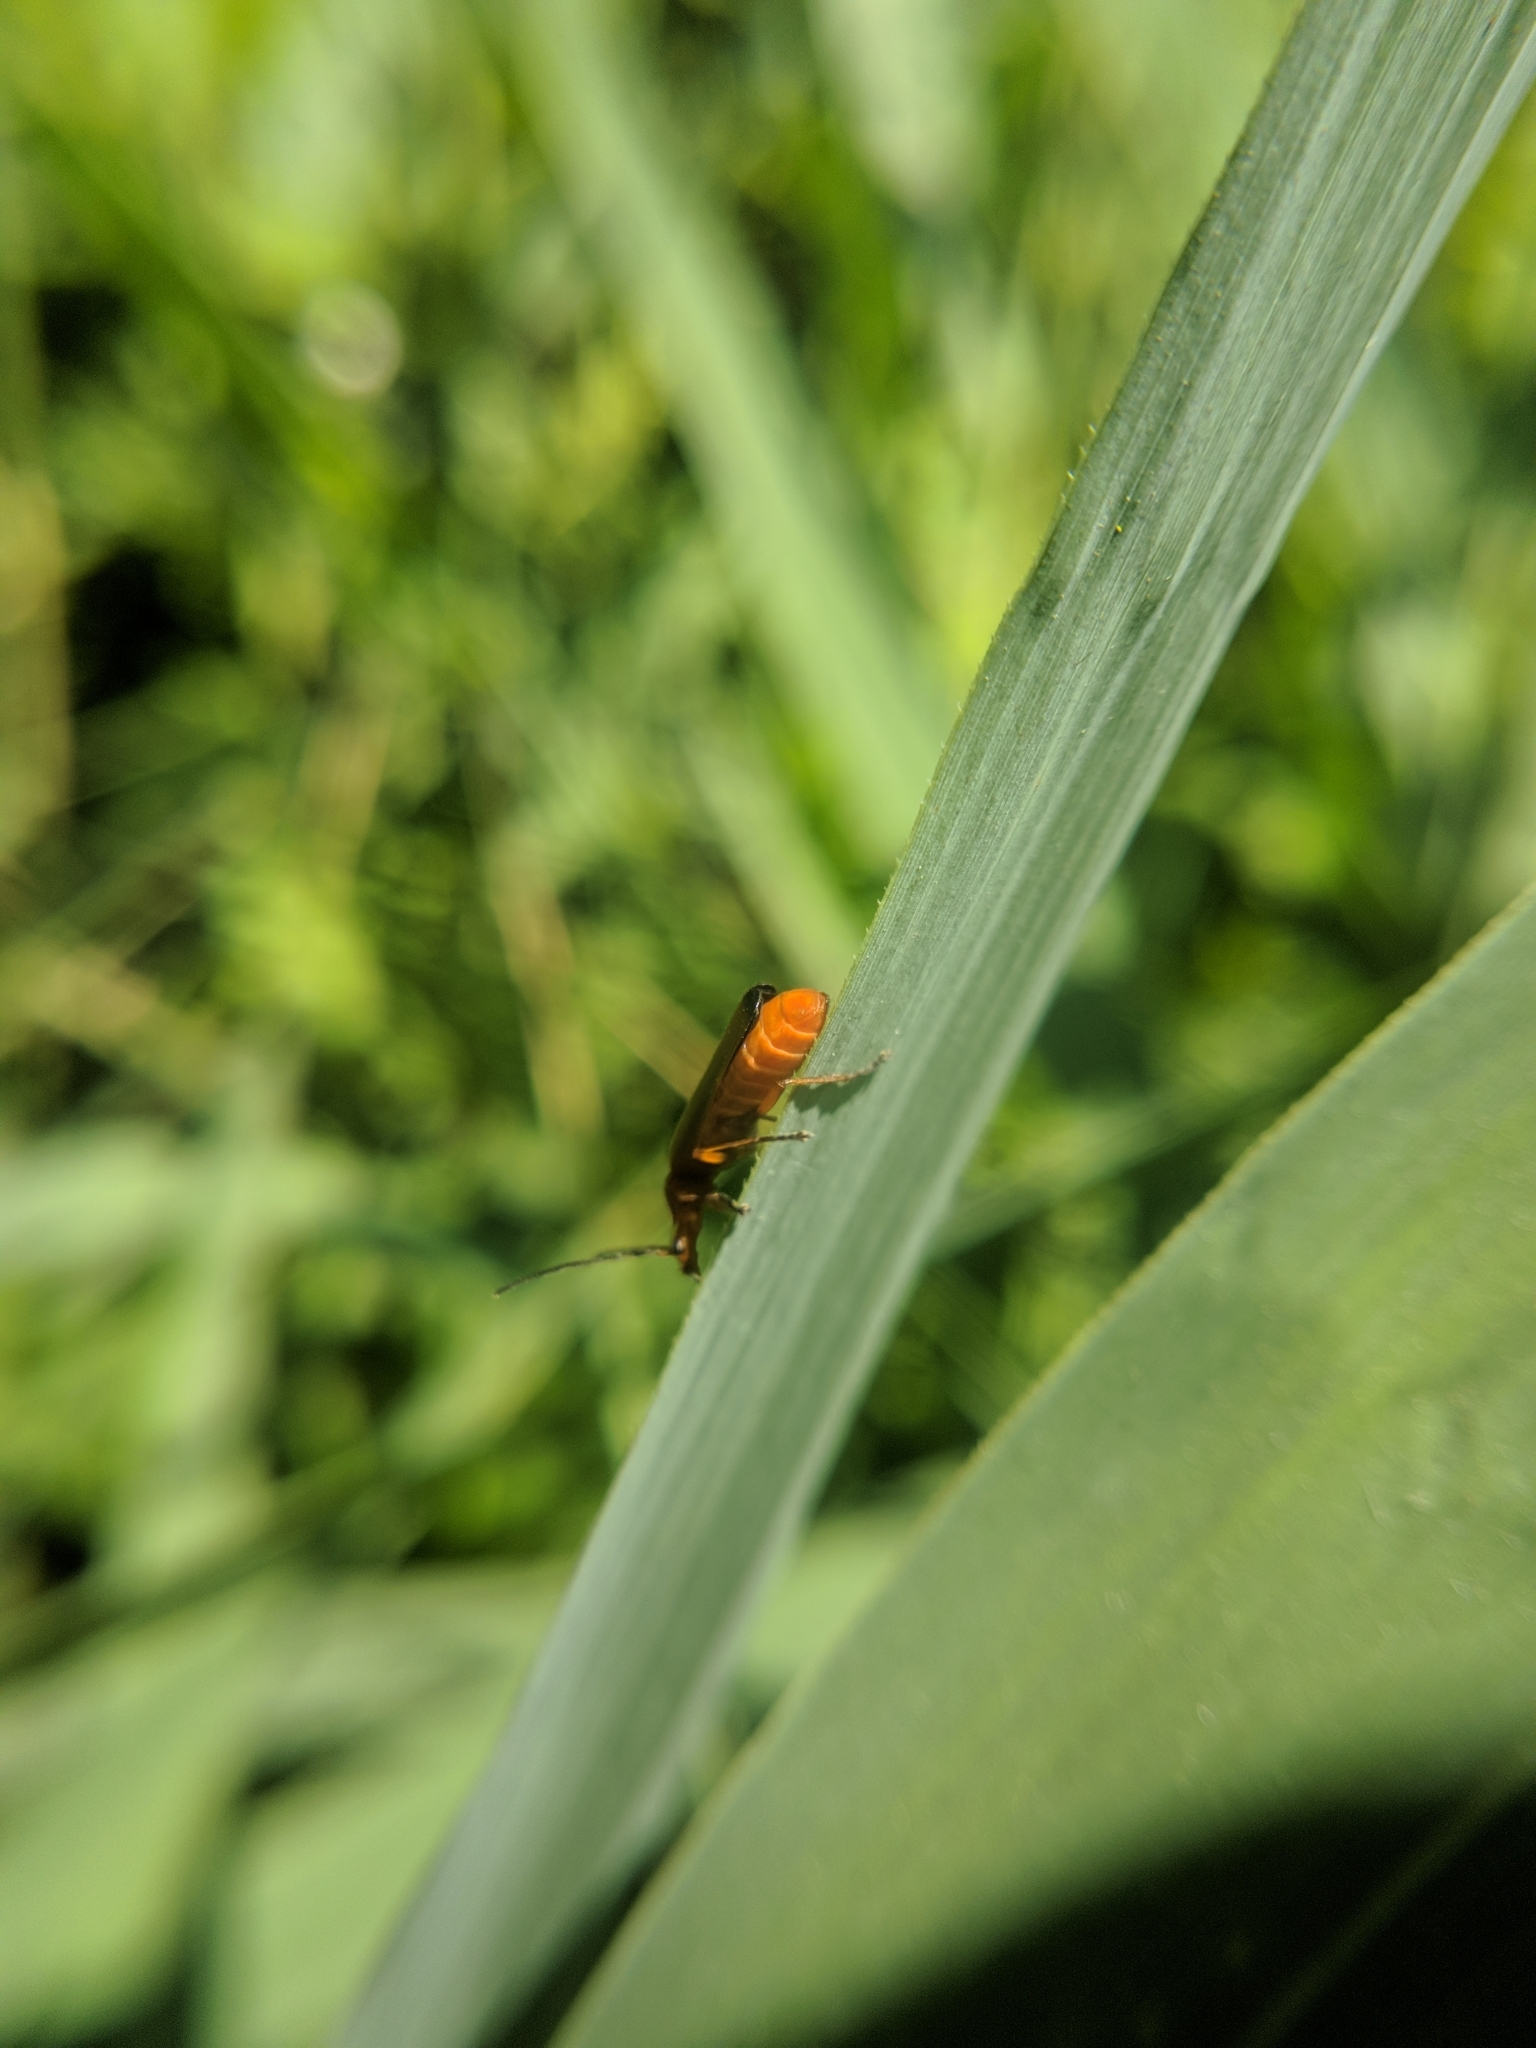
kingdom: Animalia
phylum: Arthropoda
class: Insecta
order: Coleoptera
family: Cantharidae
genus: Rhagonycha
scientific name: Rhagonycha fulva
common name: Common red soldier beetle
